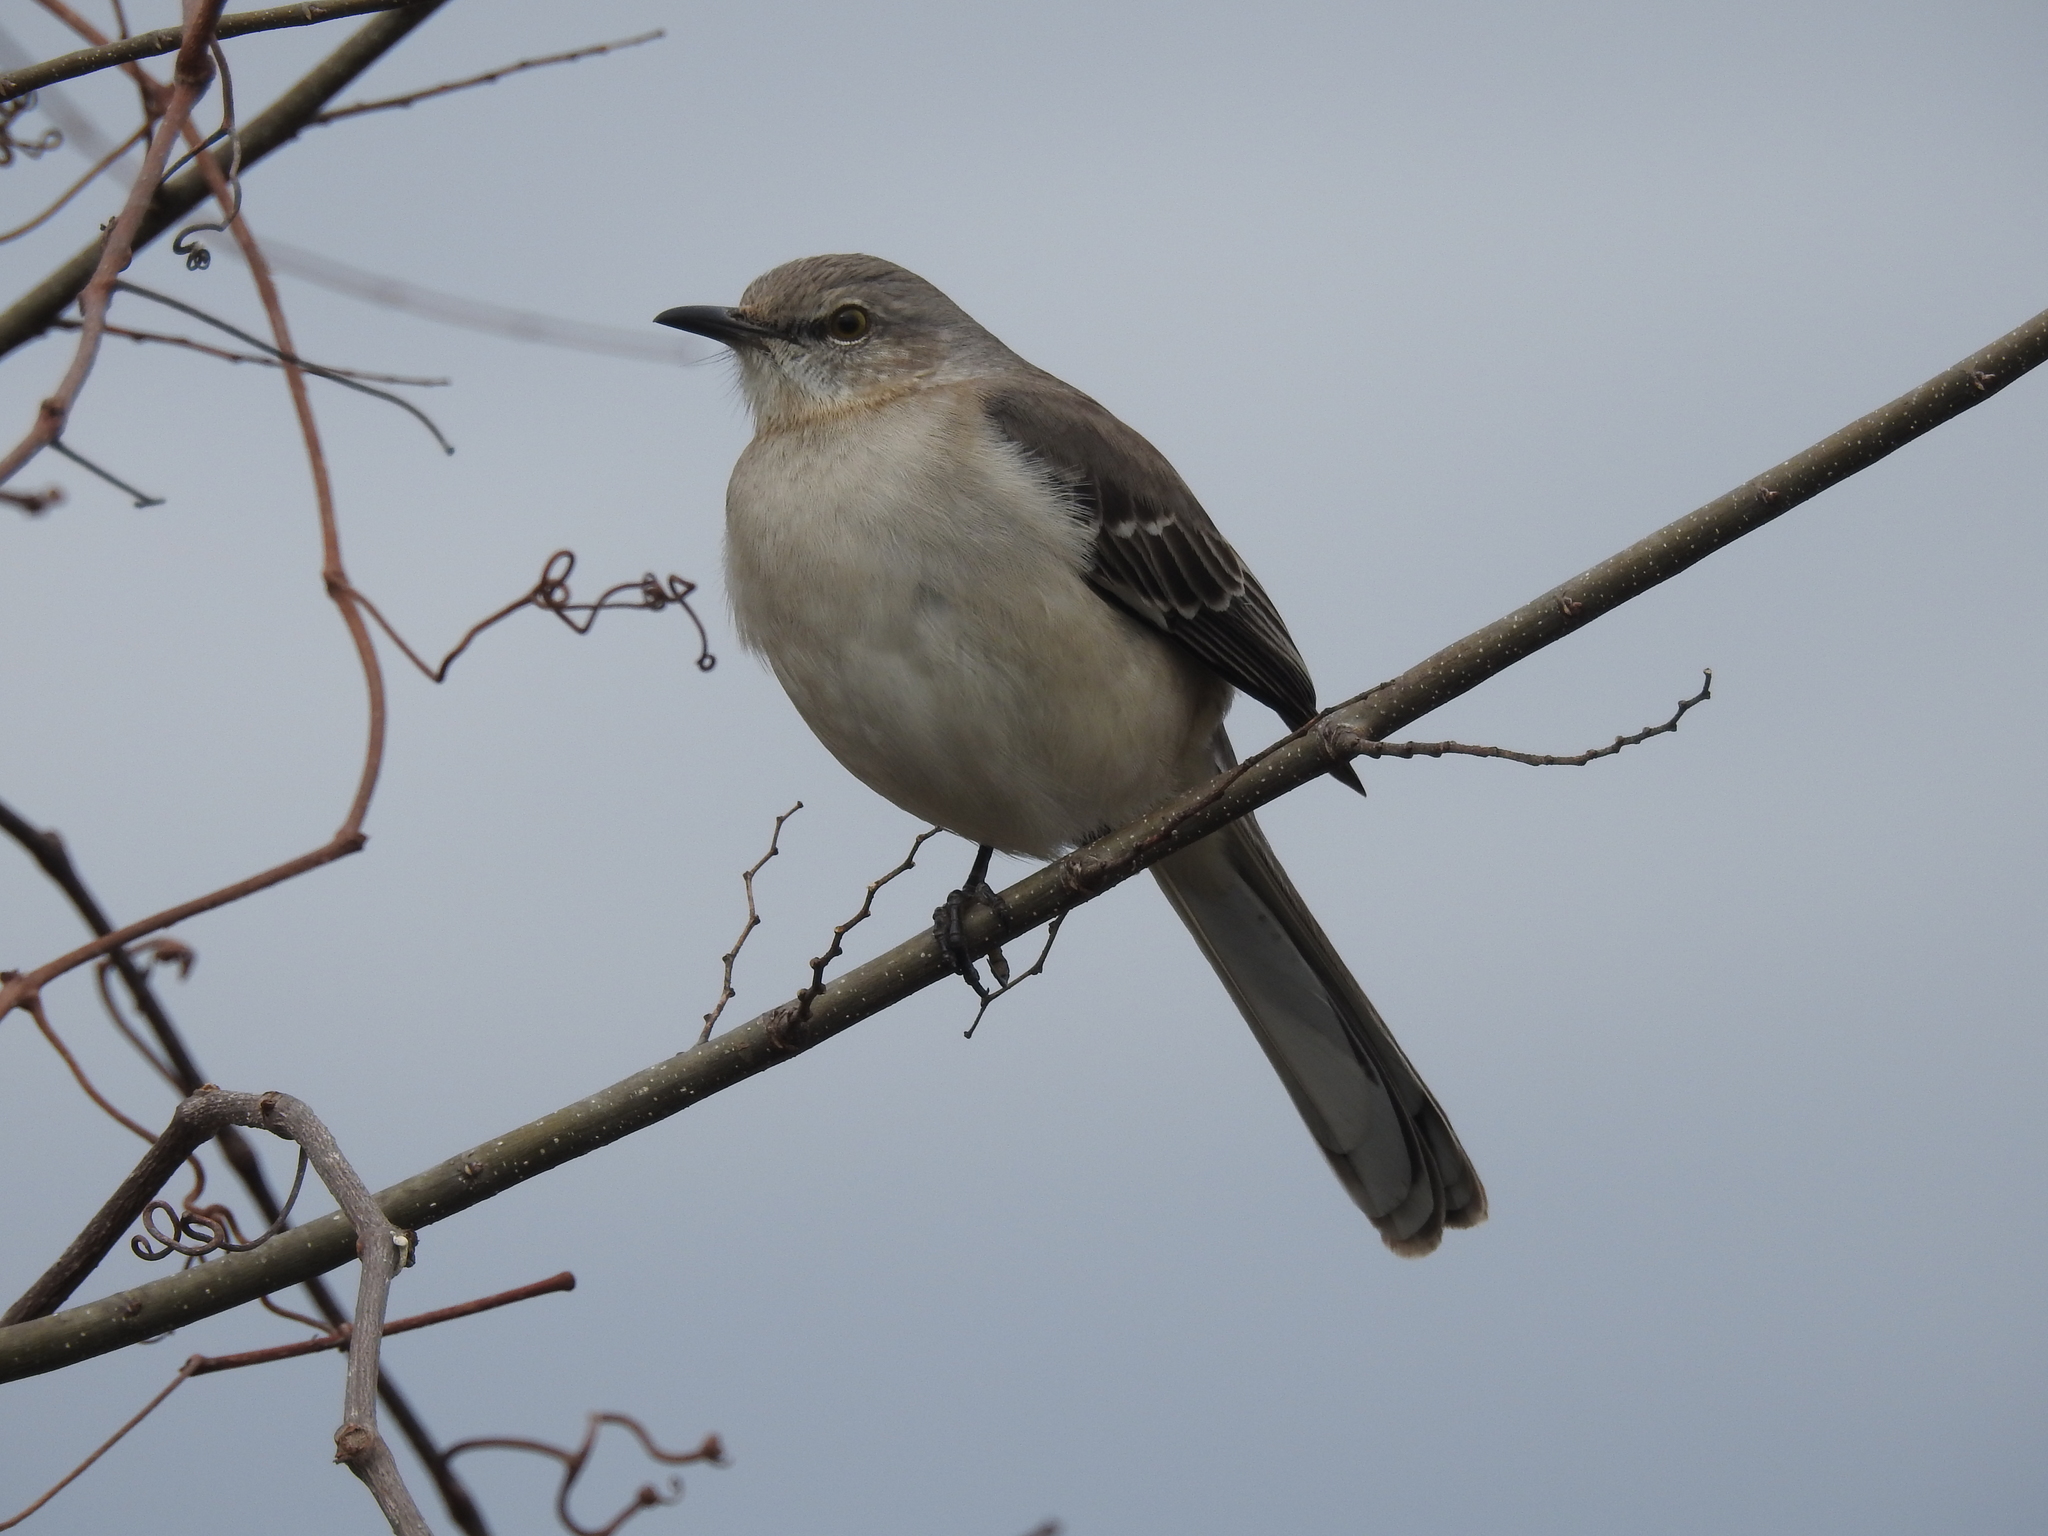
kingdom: Animalia
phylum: Chordata
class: Aves
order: Passeriformes
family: Mimidae
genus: Mimus
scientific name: Mimus polyglottos
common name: Northern mockingbird
